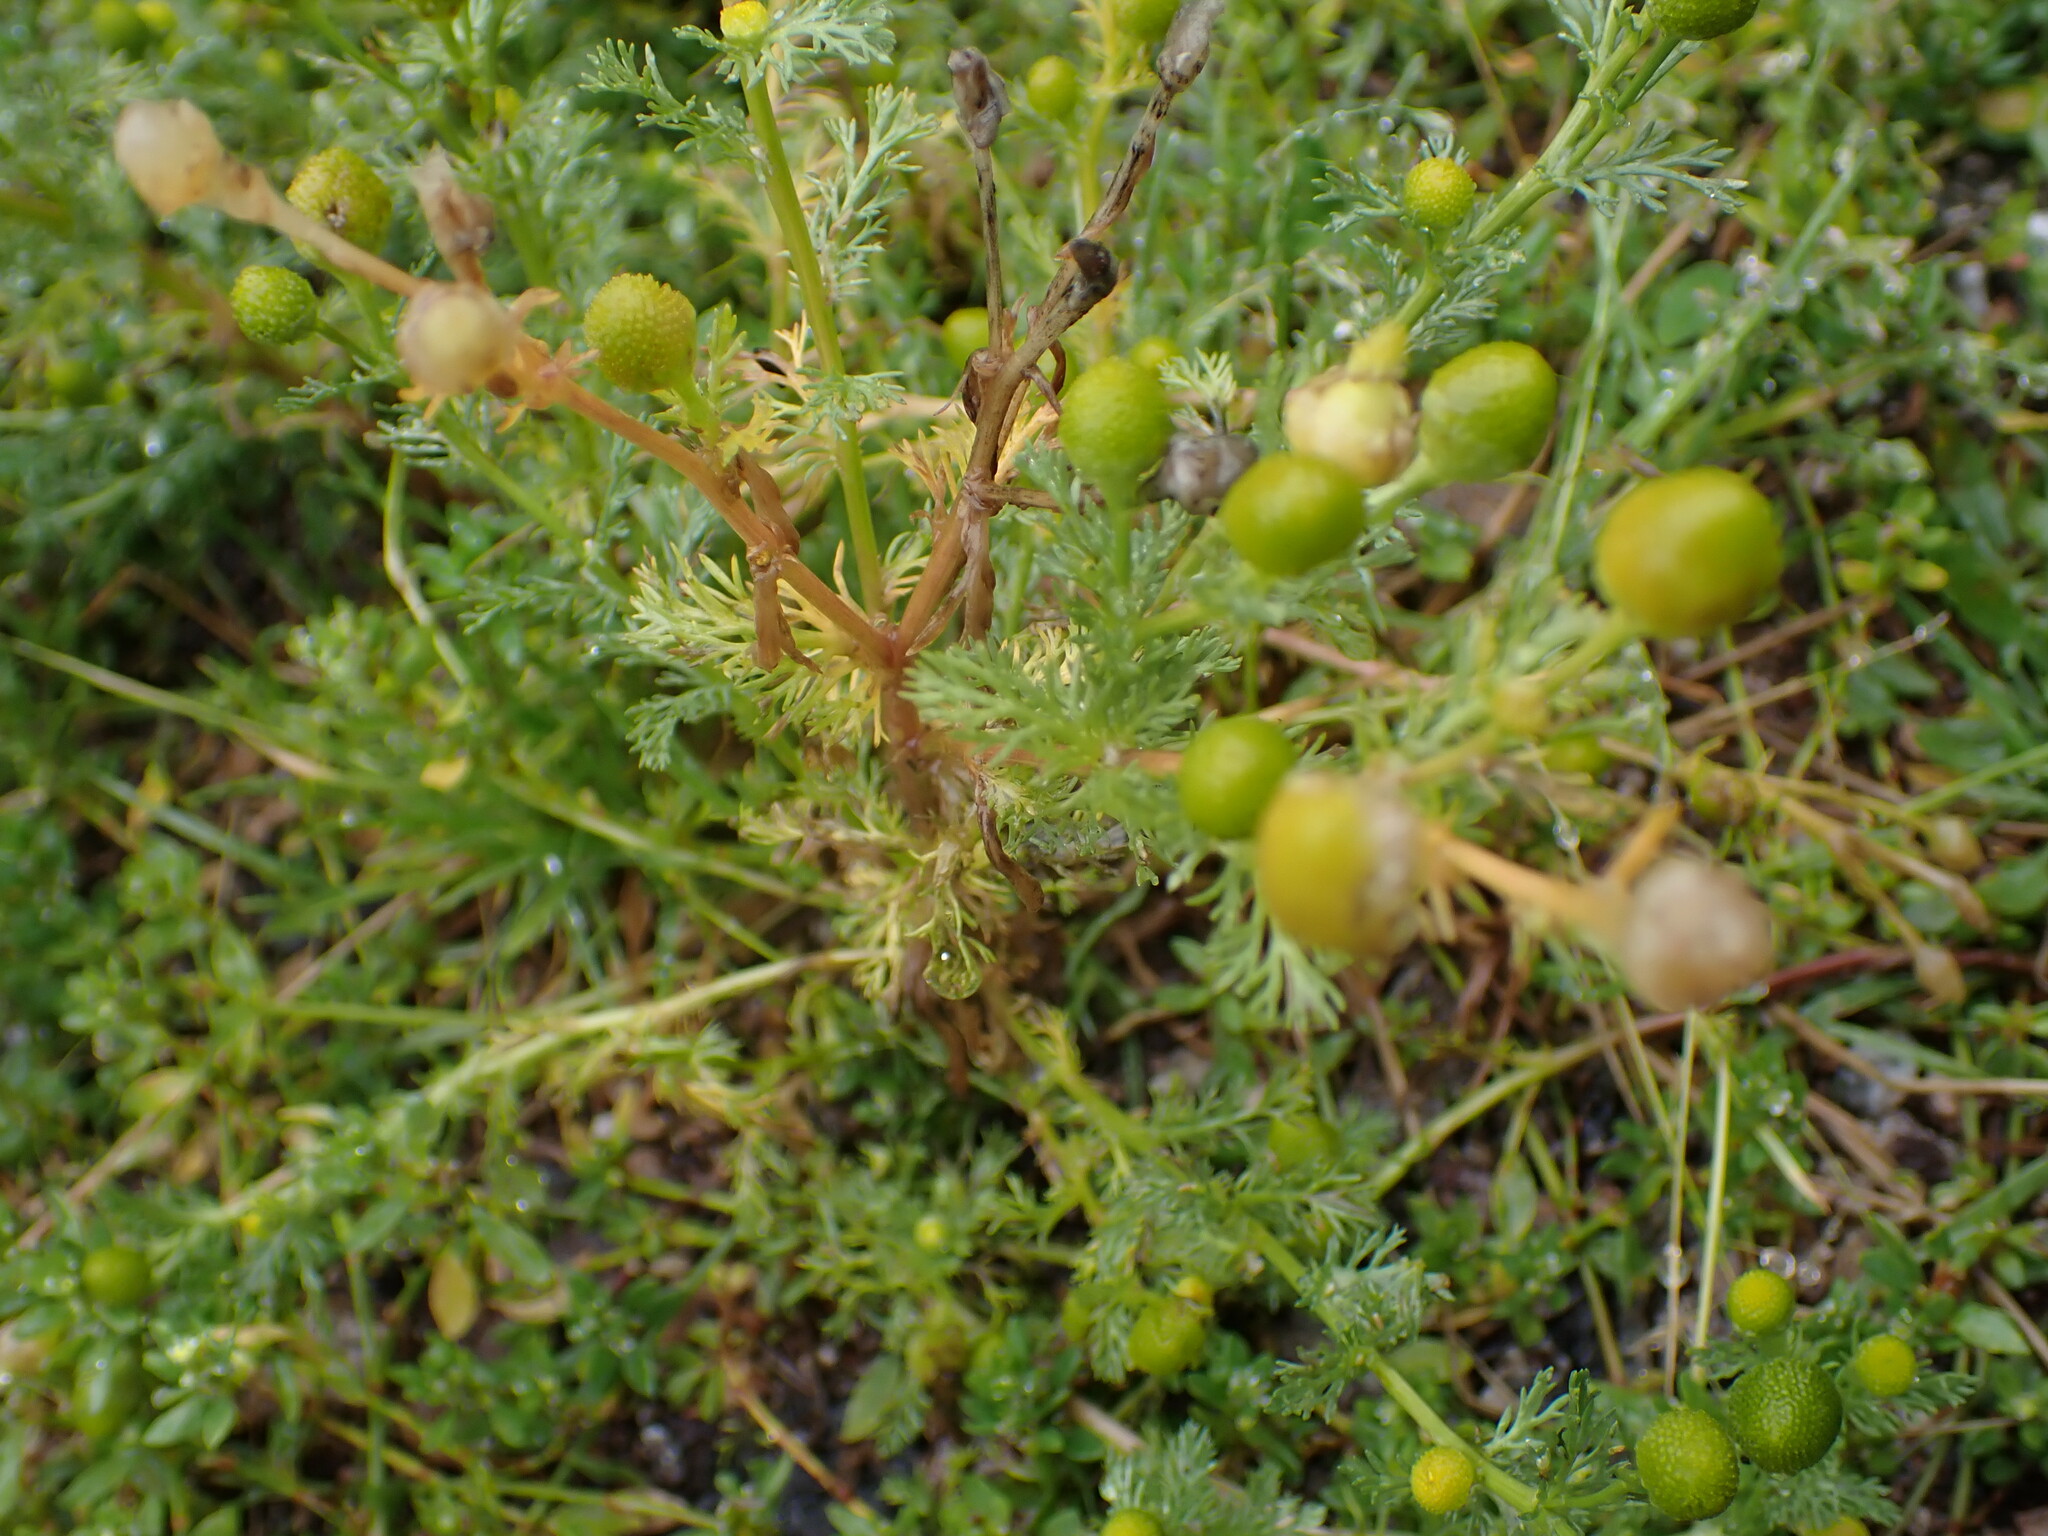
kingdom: Plantae
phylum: Tracheophyta
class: Magnoliopsida
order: Asterales
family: Asteraceae
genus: Matricaria
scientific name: Matricaria discoidea
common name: Disc mayweed
